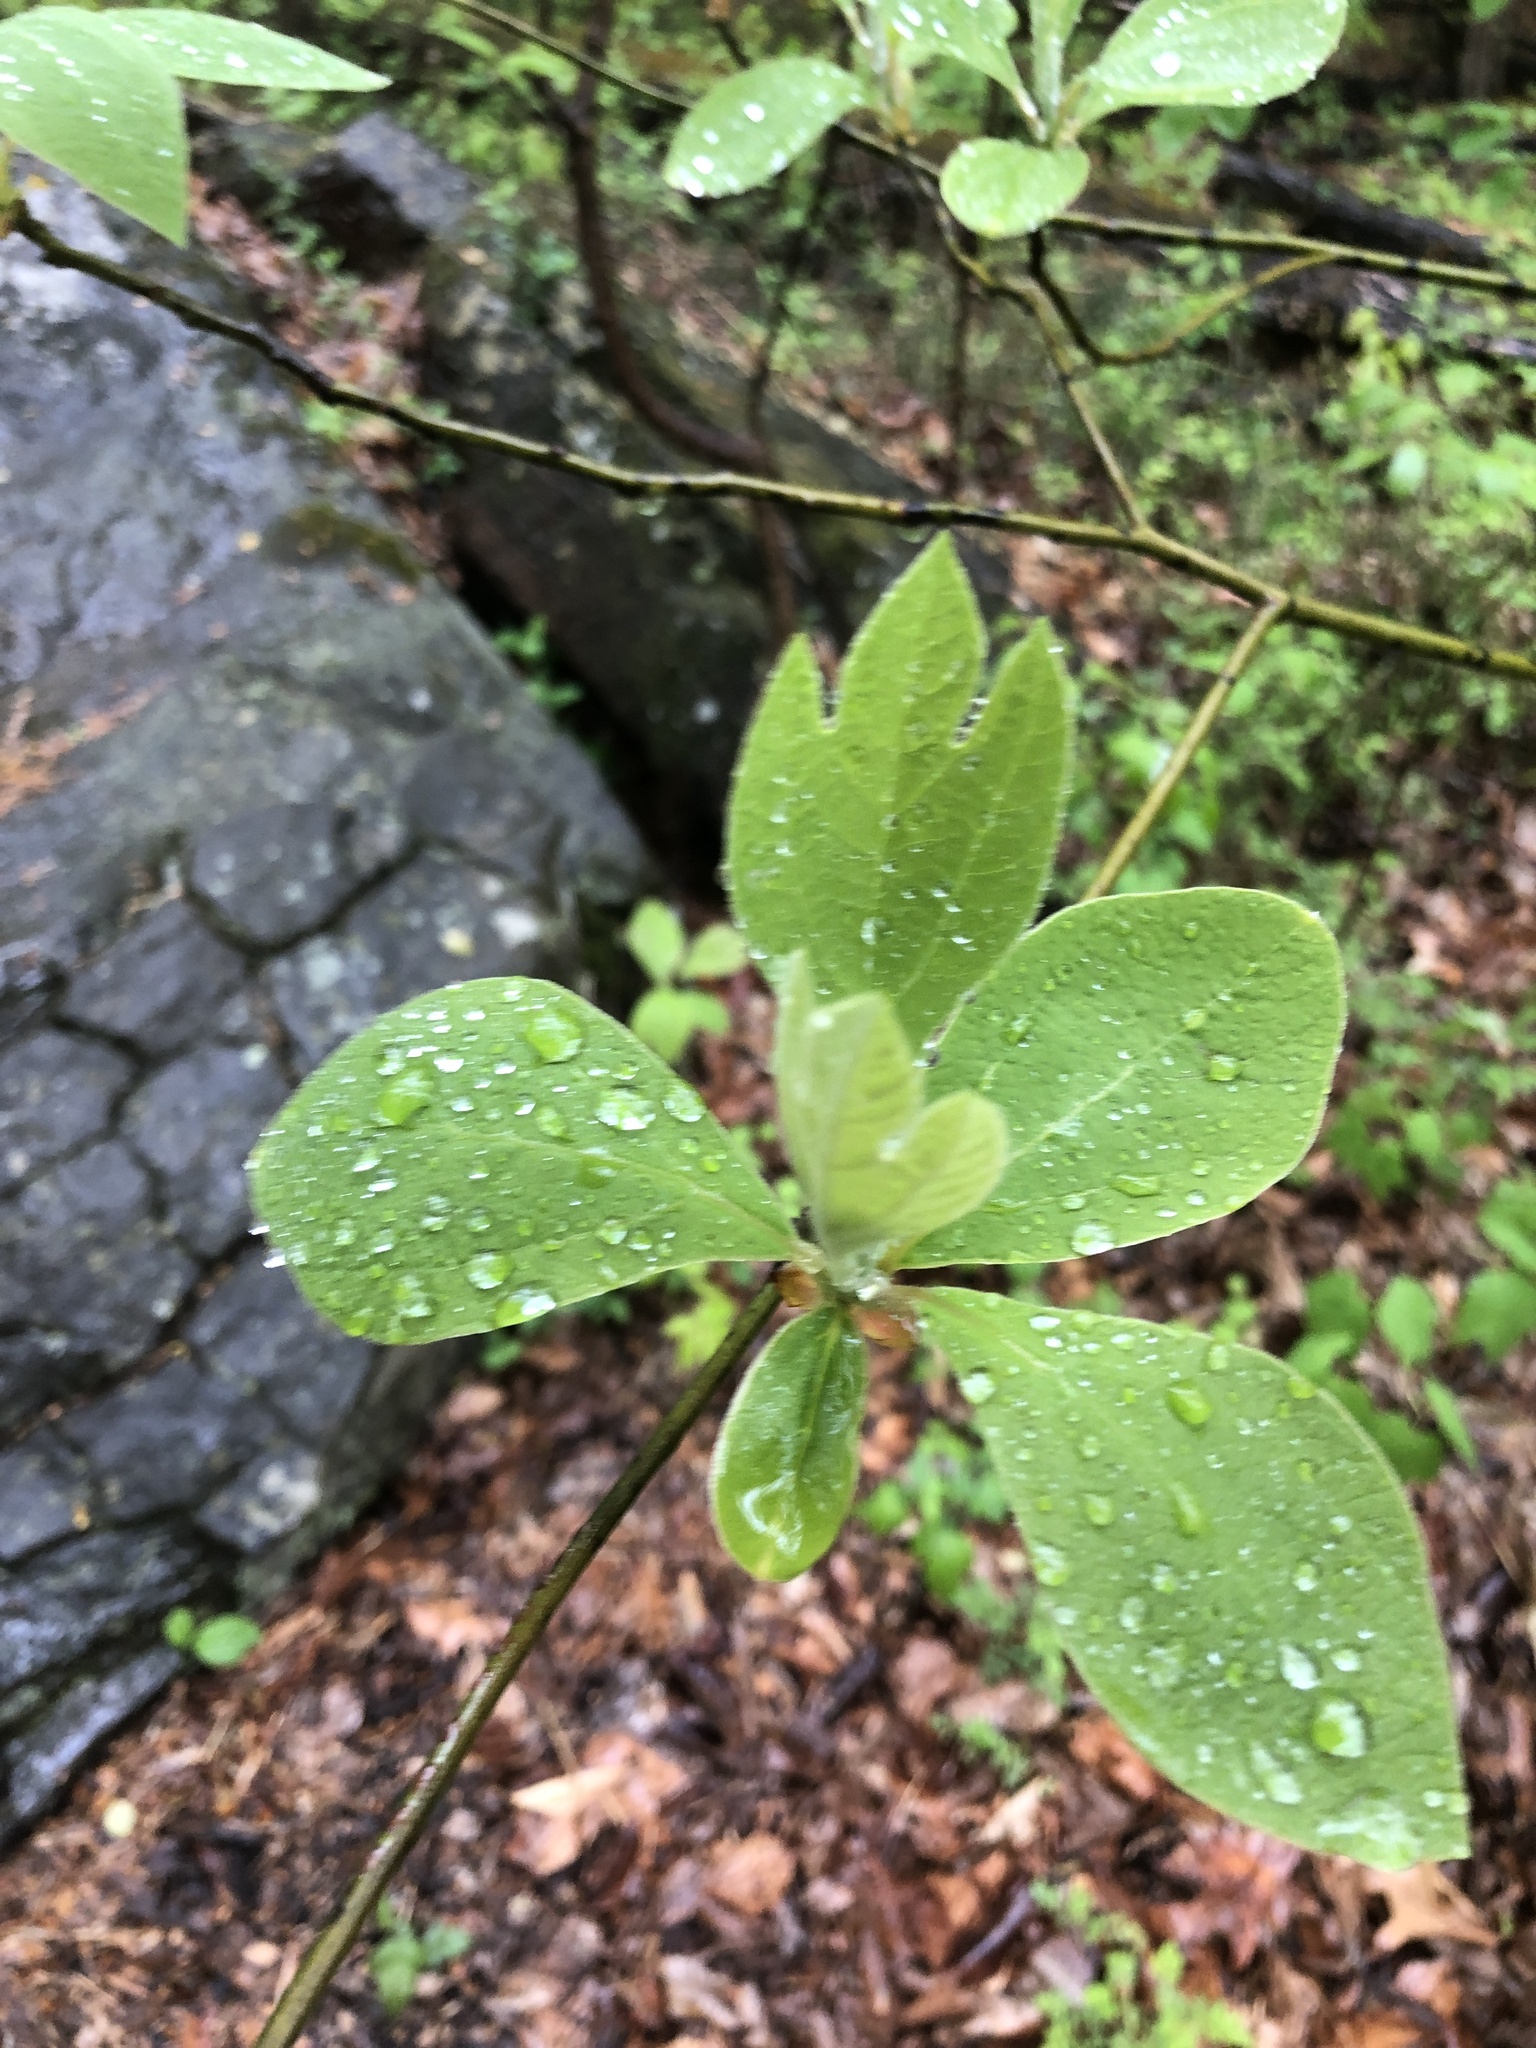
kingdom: Plantae
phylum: Tracheophyta
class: Magnoliopsida
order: Laurales
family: Lauraceae
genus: Sassafras
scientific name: Sassafras albidum
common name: Sassafras
